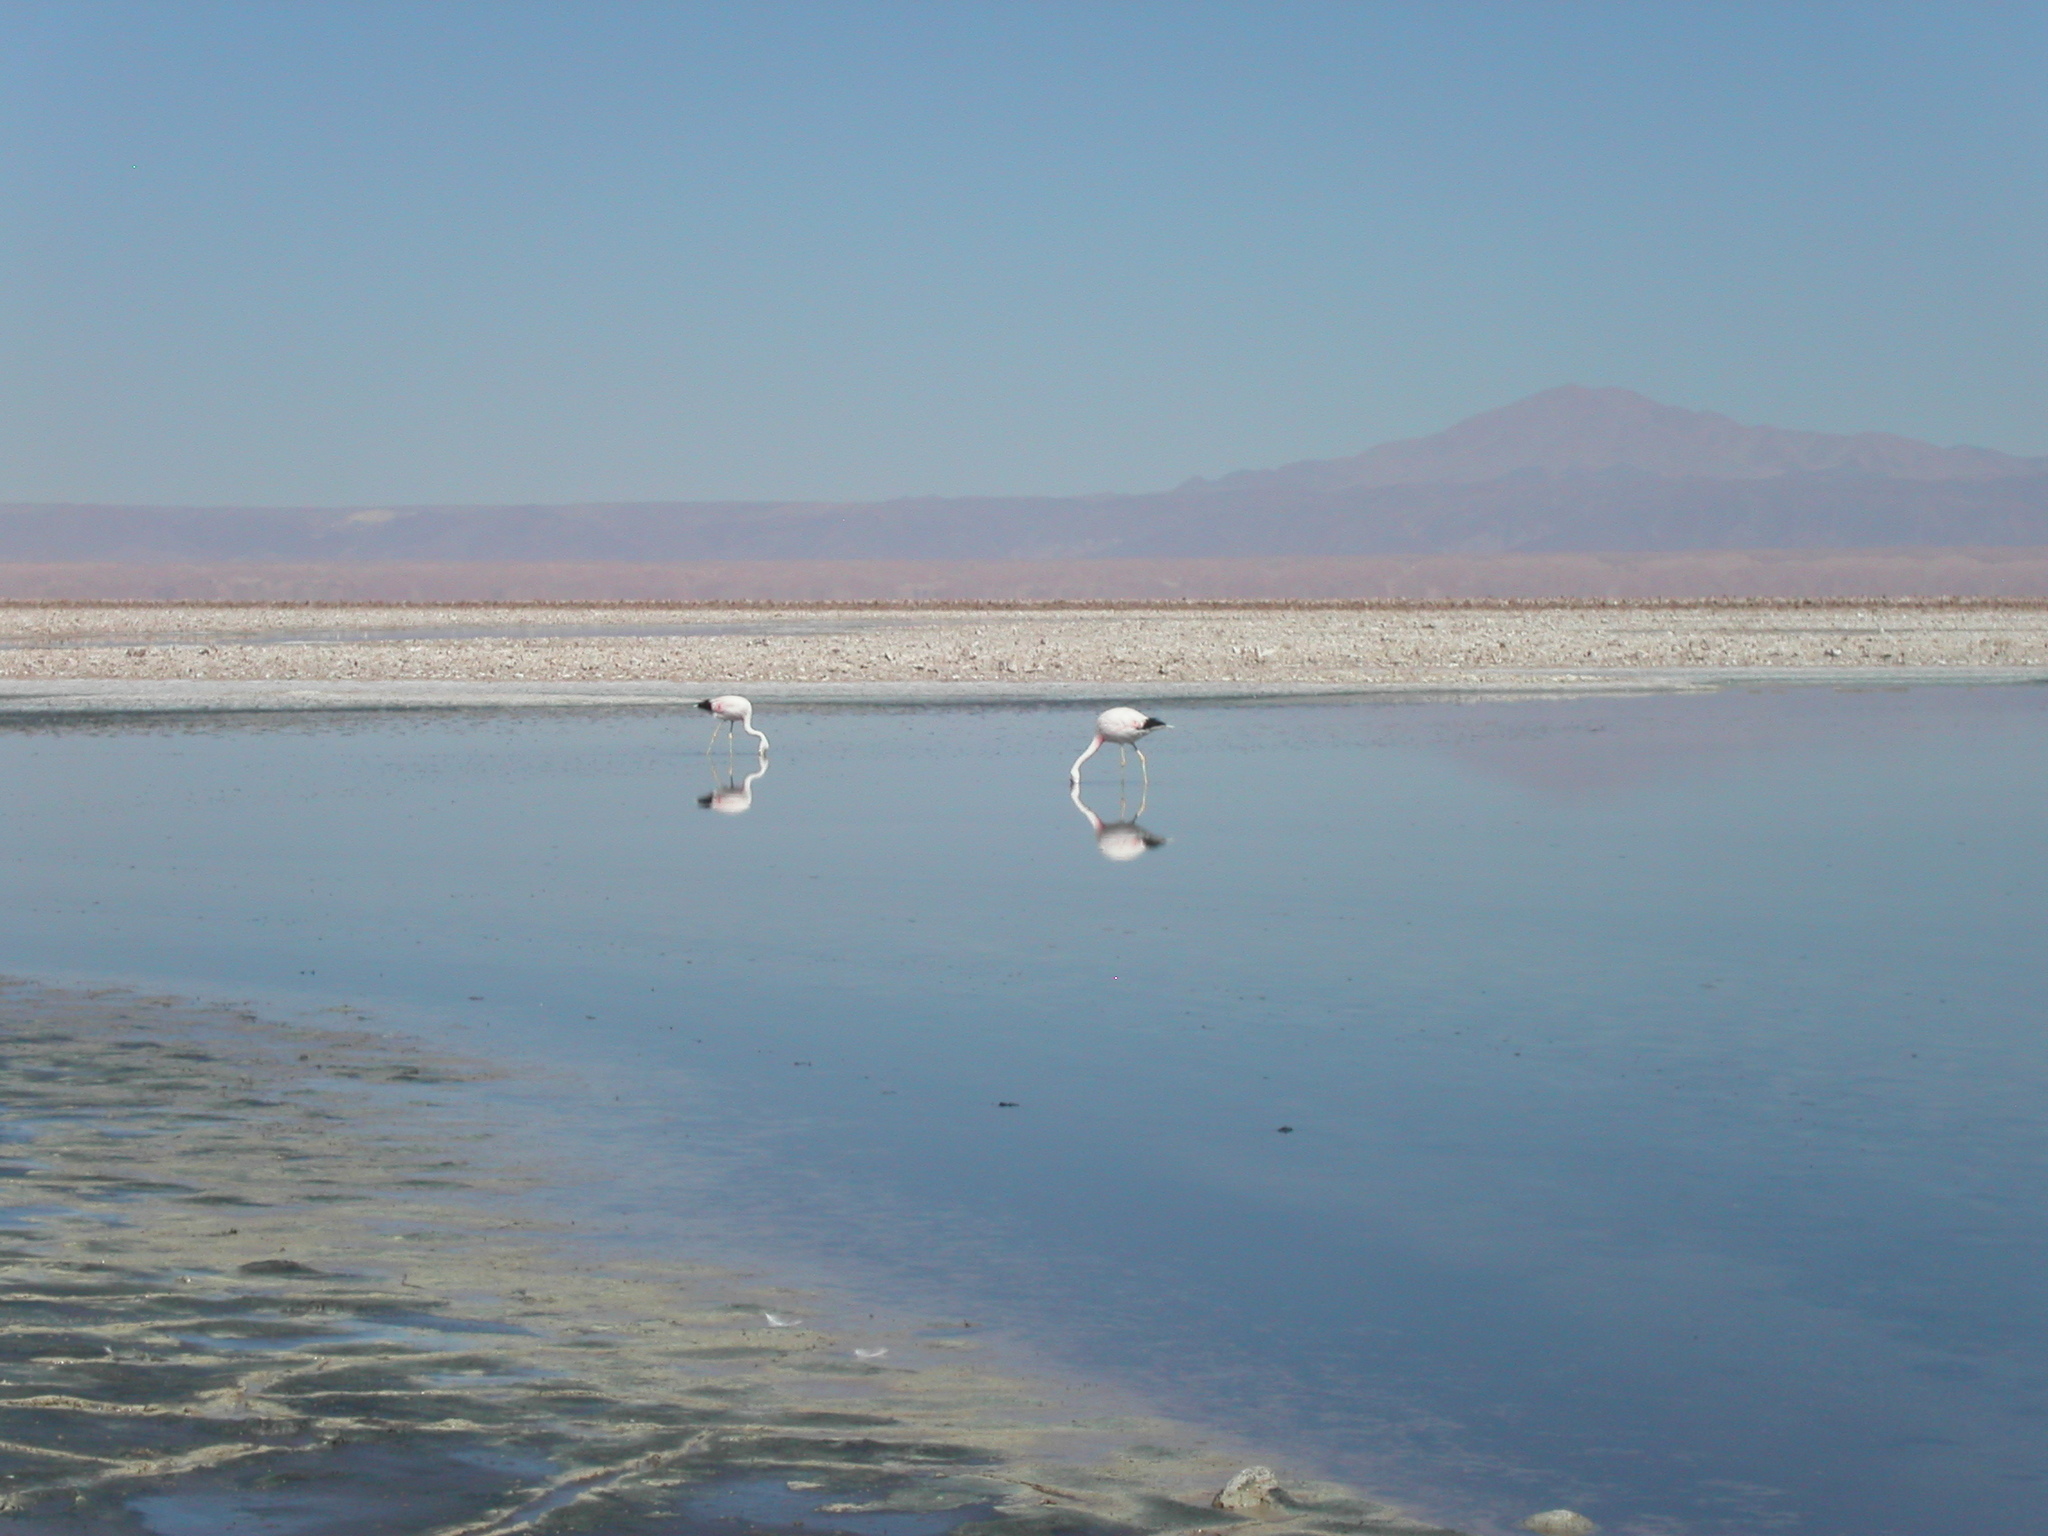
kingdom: Animalia
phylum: Chordata
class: Aves
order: Phoenicopteriformes
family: Phoenicopteridae
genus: Phoenicoparrus
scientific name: Phoenicoparrus andinus
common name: Andean flamingo
